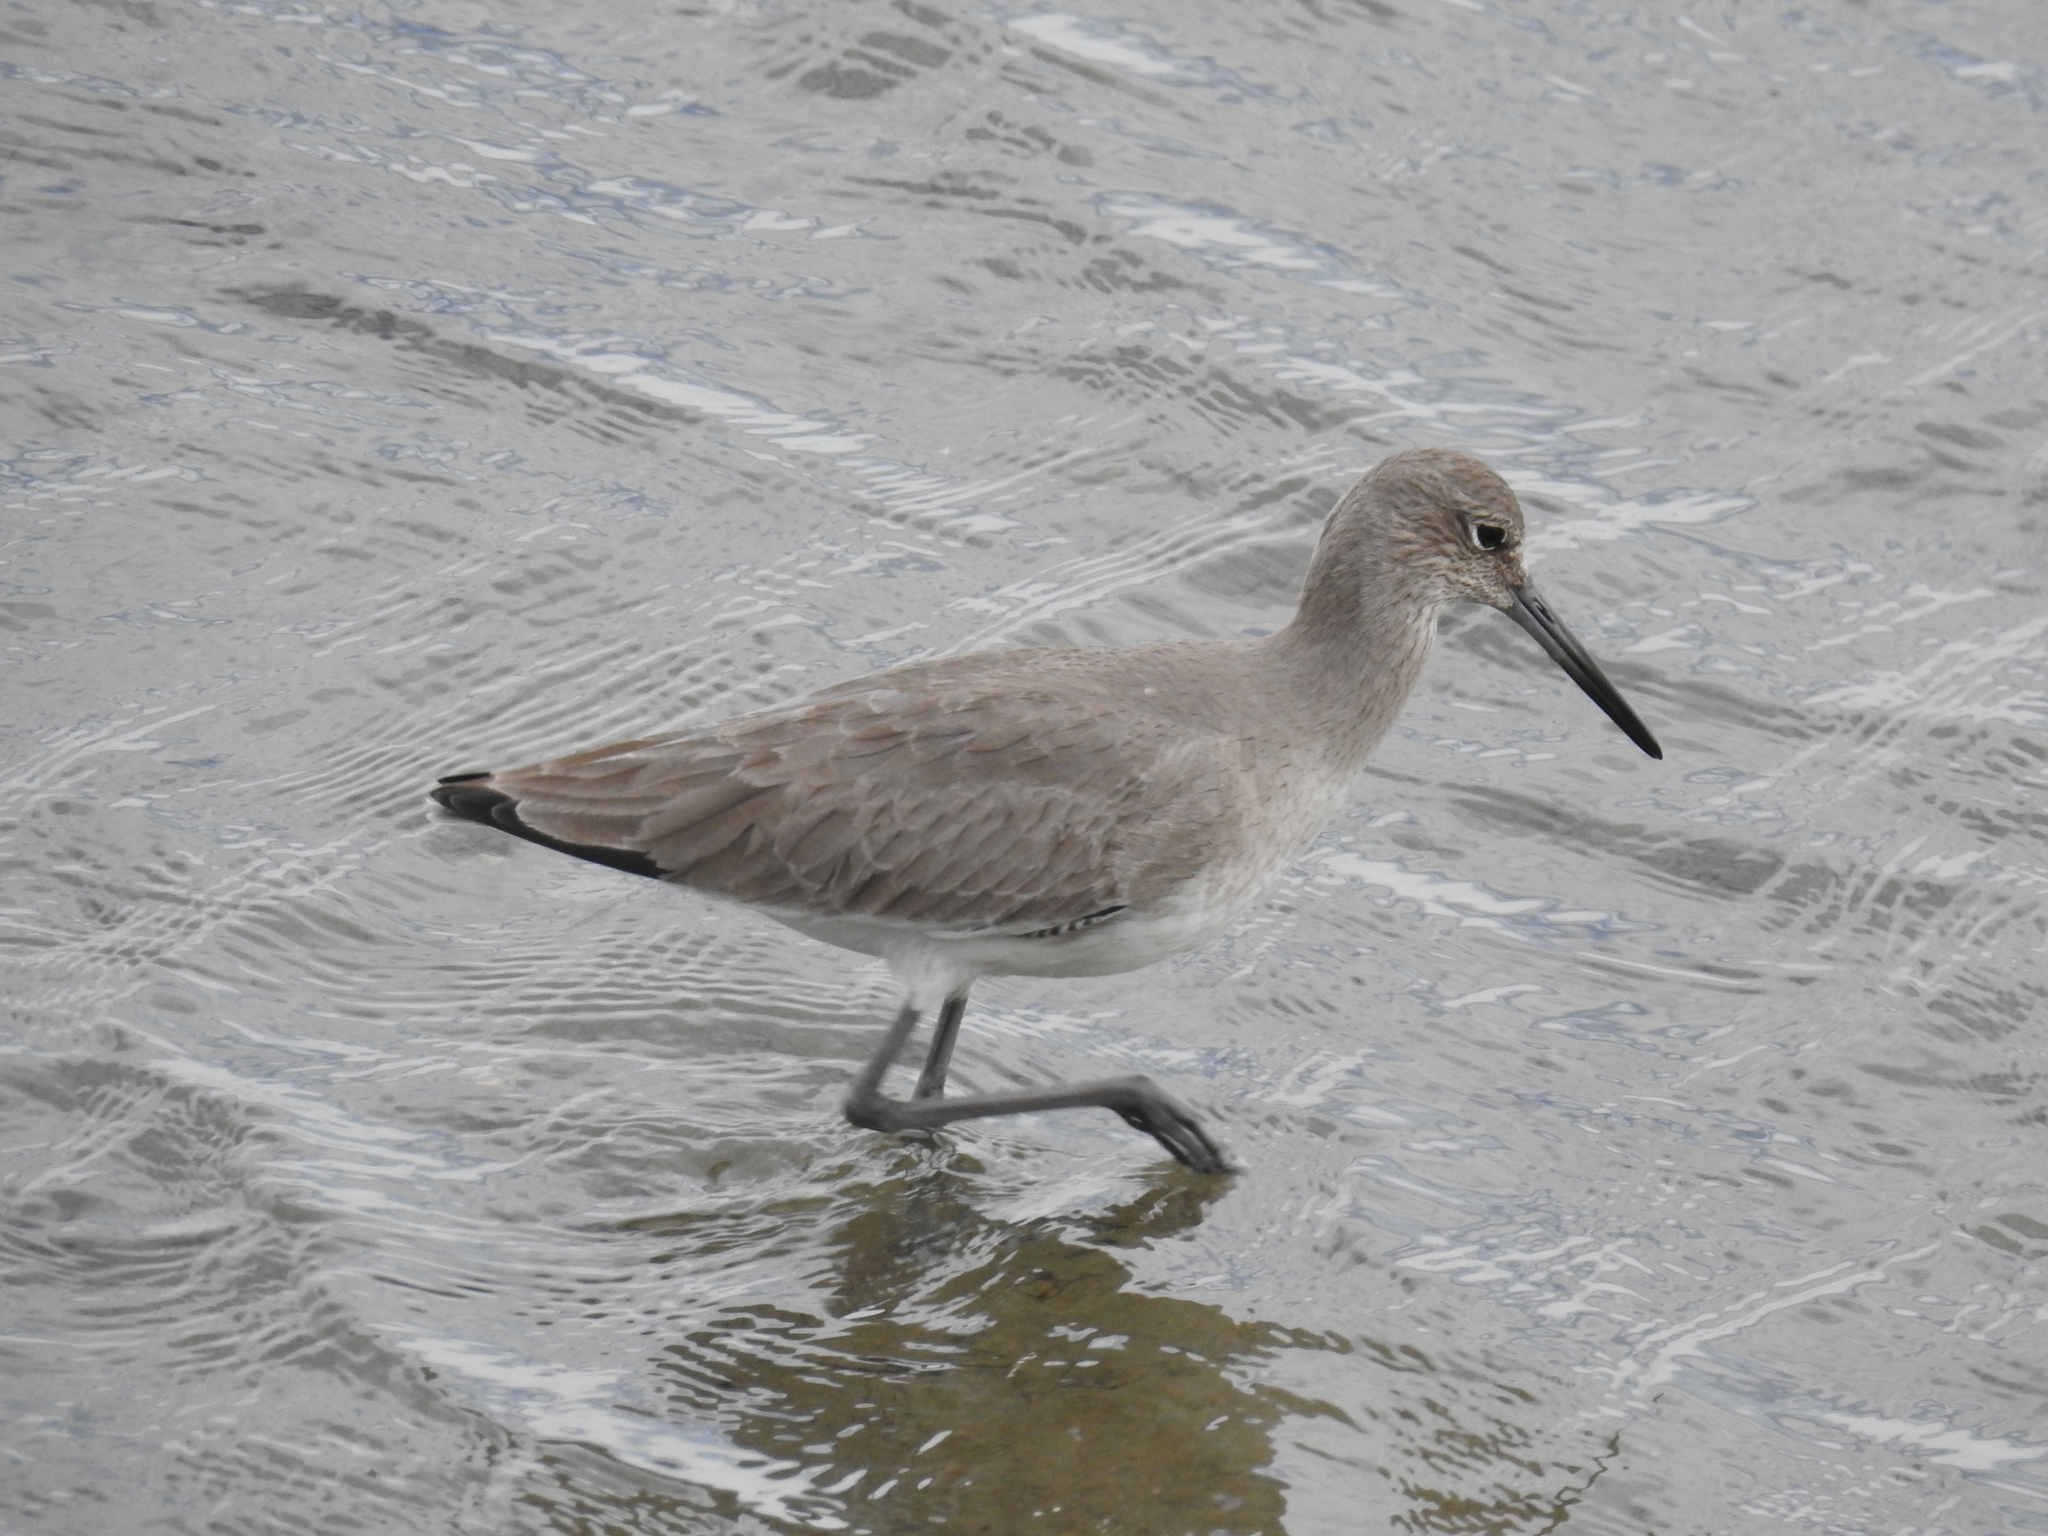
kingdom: Animalia
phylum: Chordata
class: Aves
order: Charadriiformes
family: Scolopacidae
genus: Tringa
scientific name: Tringa semipalmata
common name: Willet
